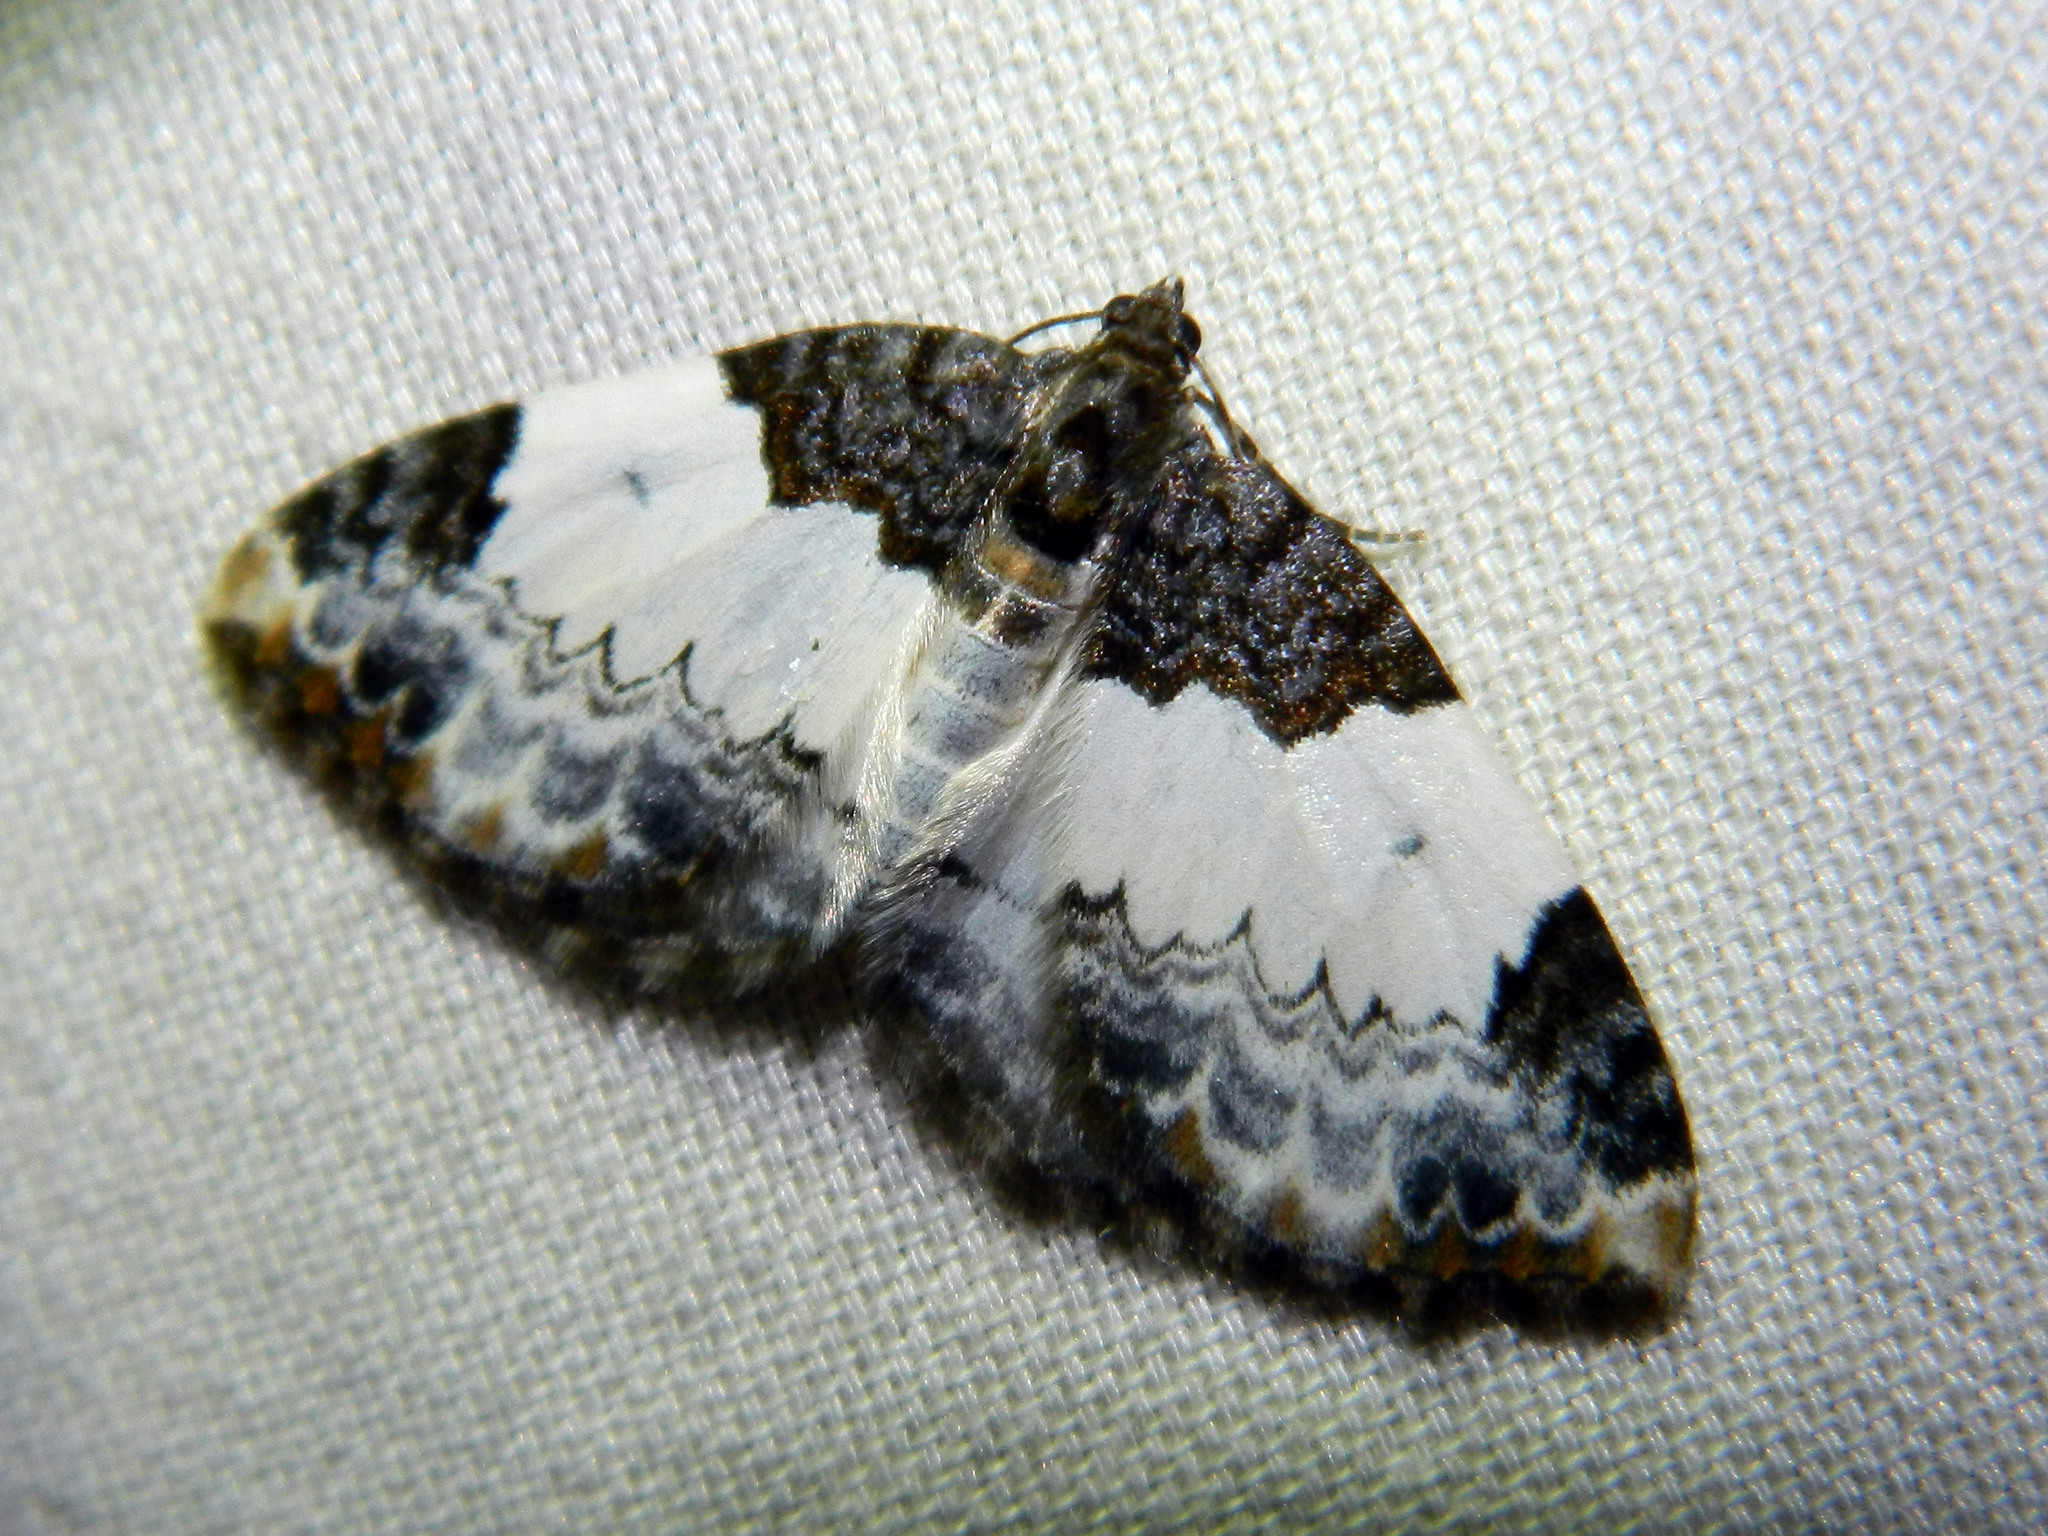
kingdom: Animalia
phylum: Arthropoda
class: Insecta
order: Lepidoptera
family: Geometridae
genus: Mesoleuca
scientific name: Mesoleuca ruficillata
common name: White-ribboned carpet moth
